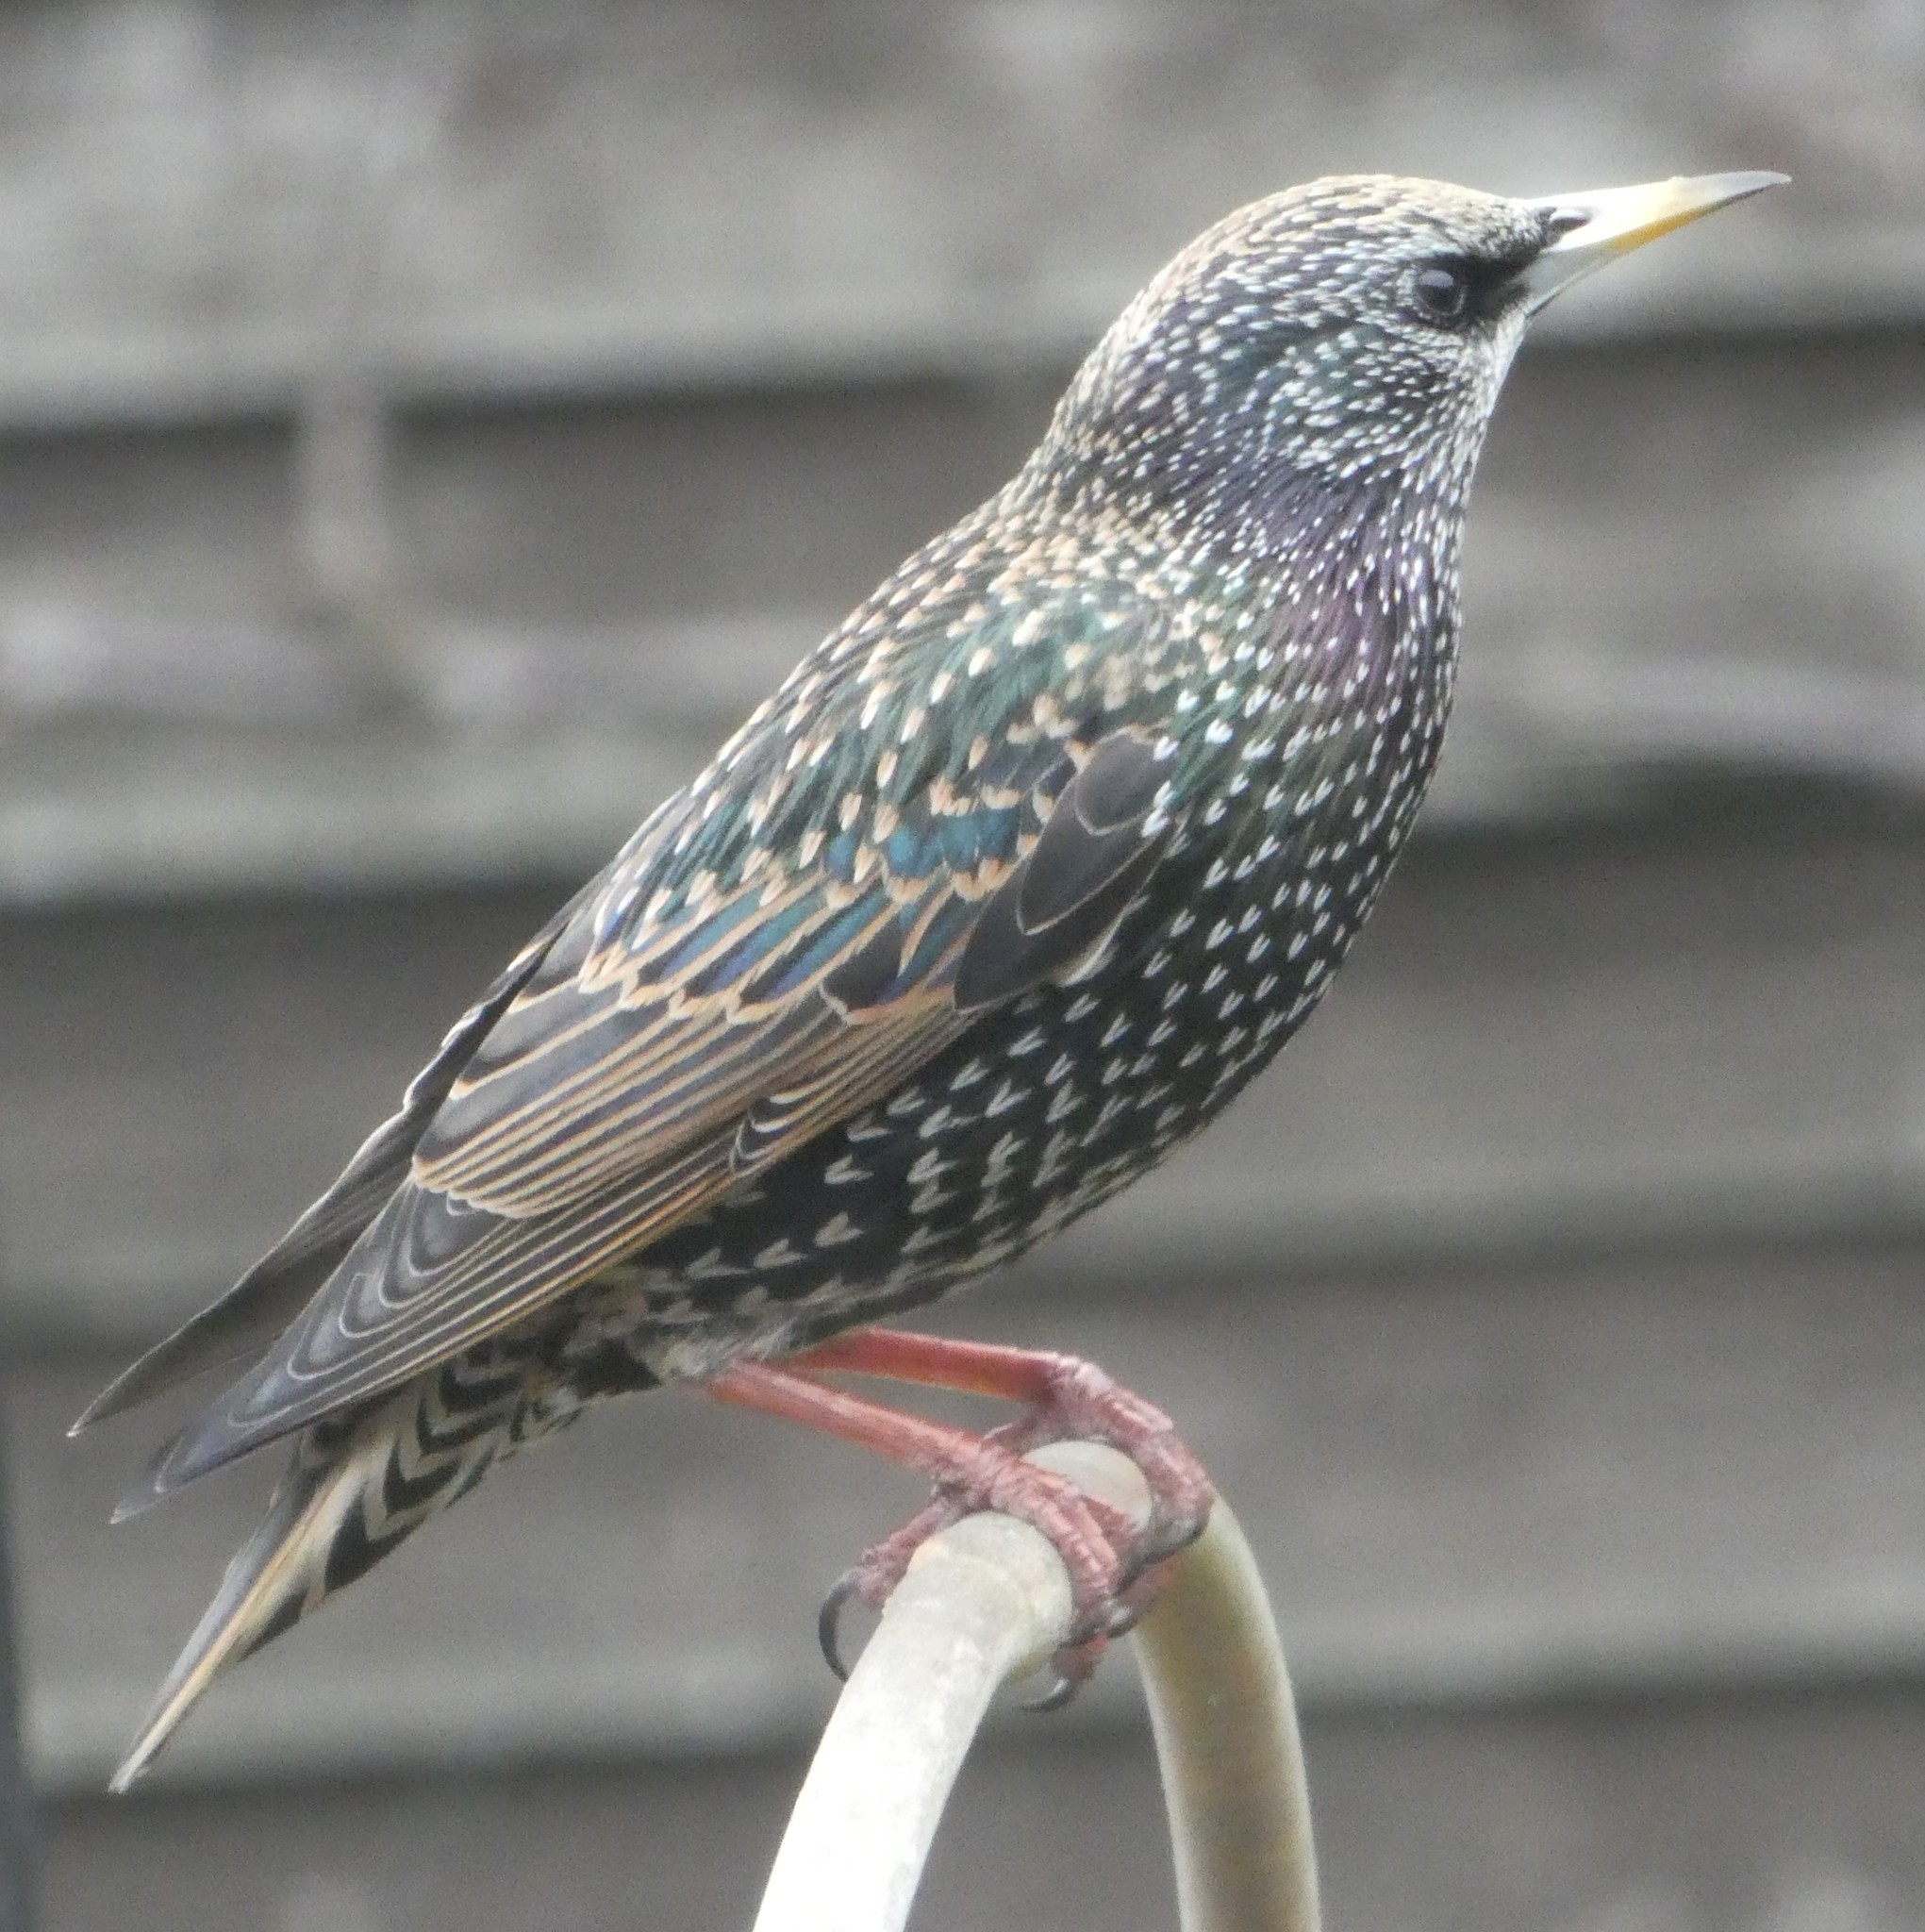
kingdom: Animalia
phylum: Chordata
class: Aves
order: Passeriformes
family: Sturnidae
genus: Sturnus
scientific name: Sturnus vulgaris
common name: Common starling
